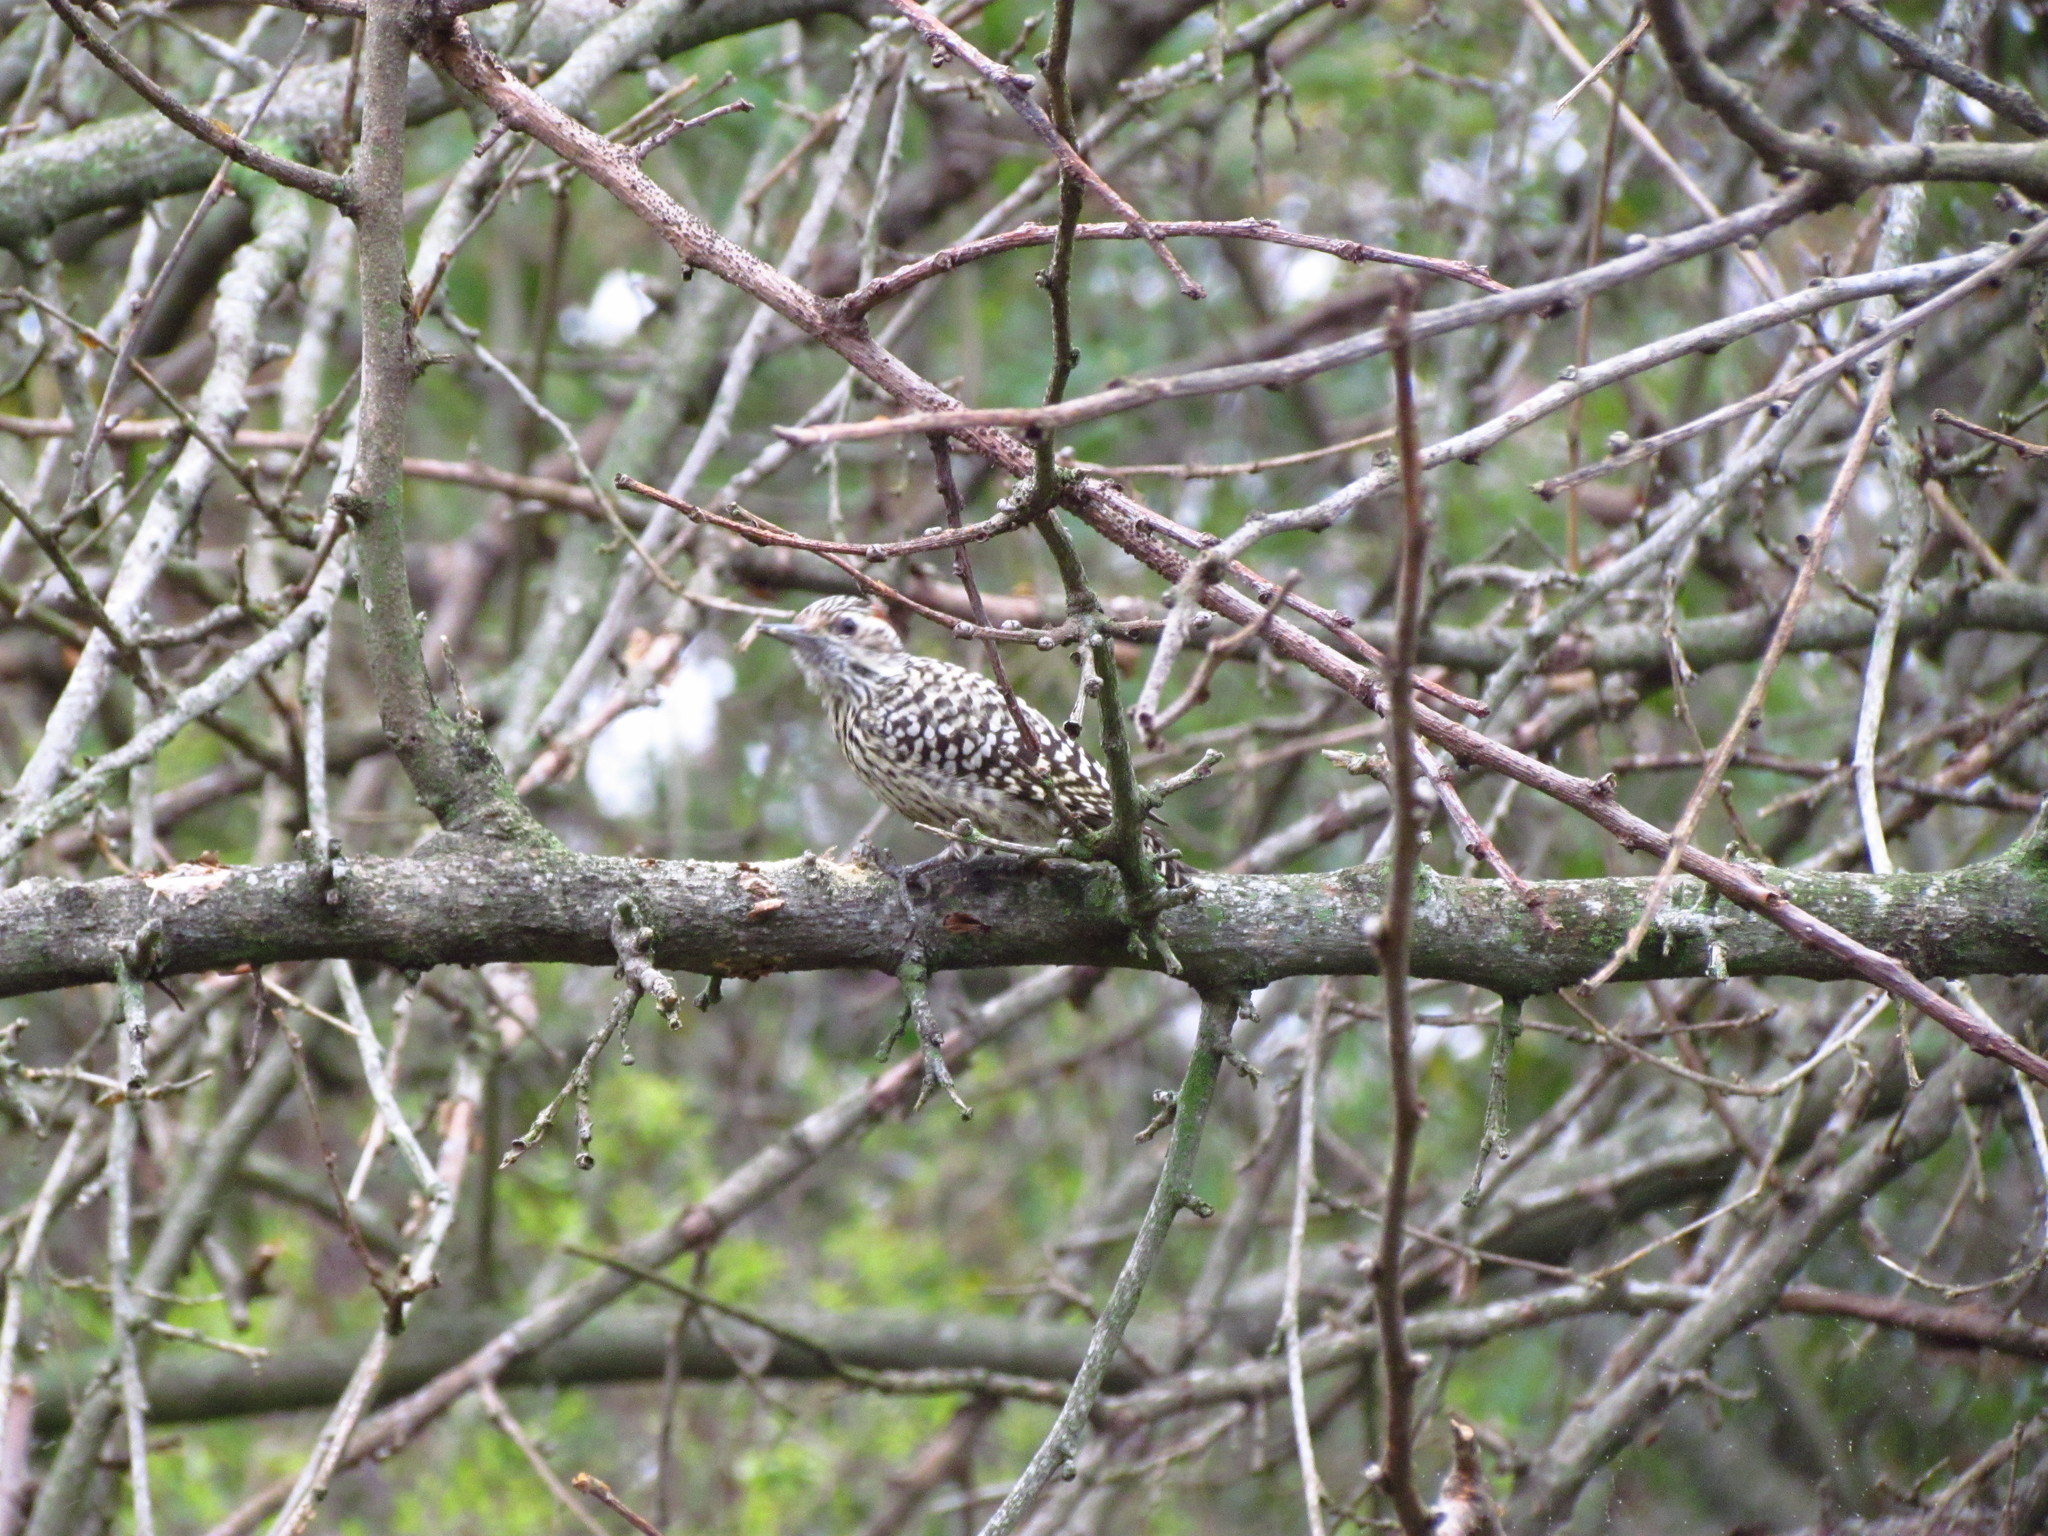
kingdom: Animalia
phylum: Chordata
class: Aves
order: Piciformes
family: Picidae
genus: Veniliornis
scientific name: Veniliornis mixtus
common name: Checkered woodpecker
